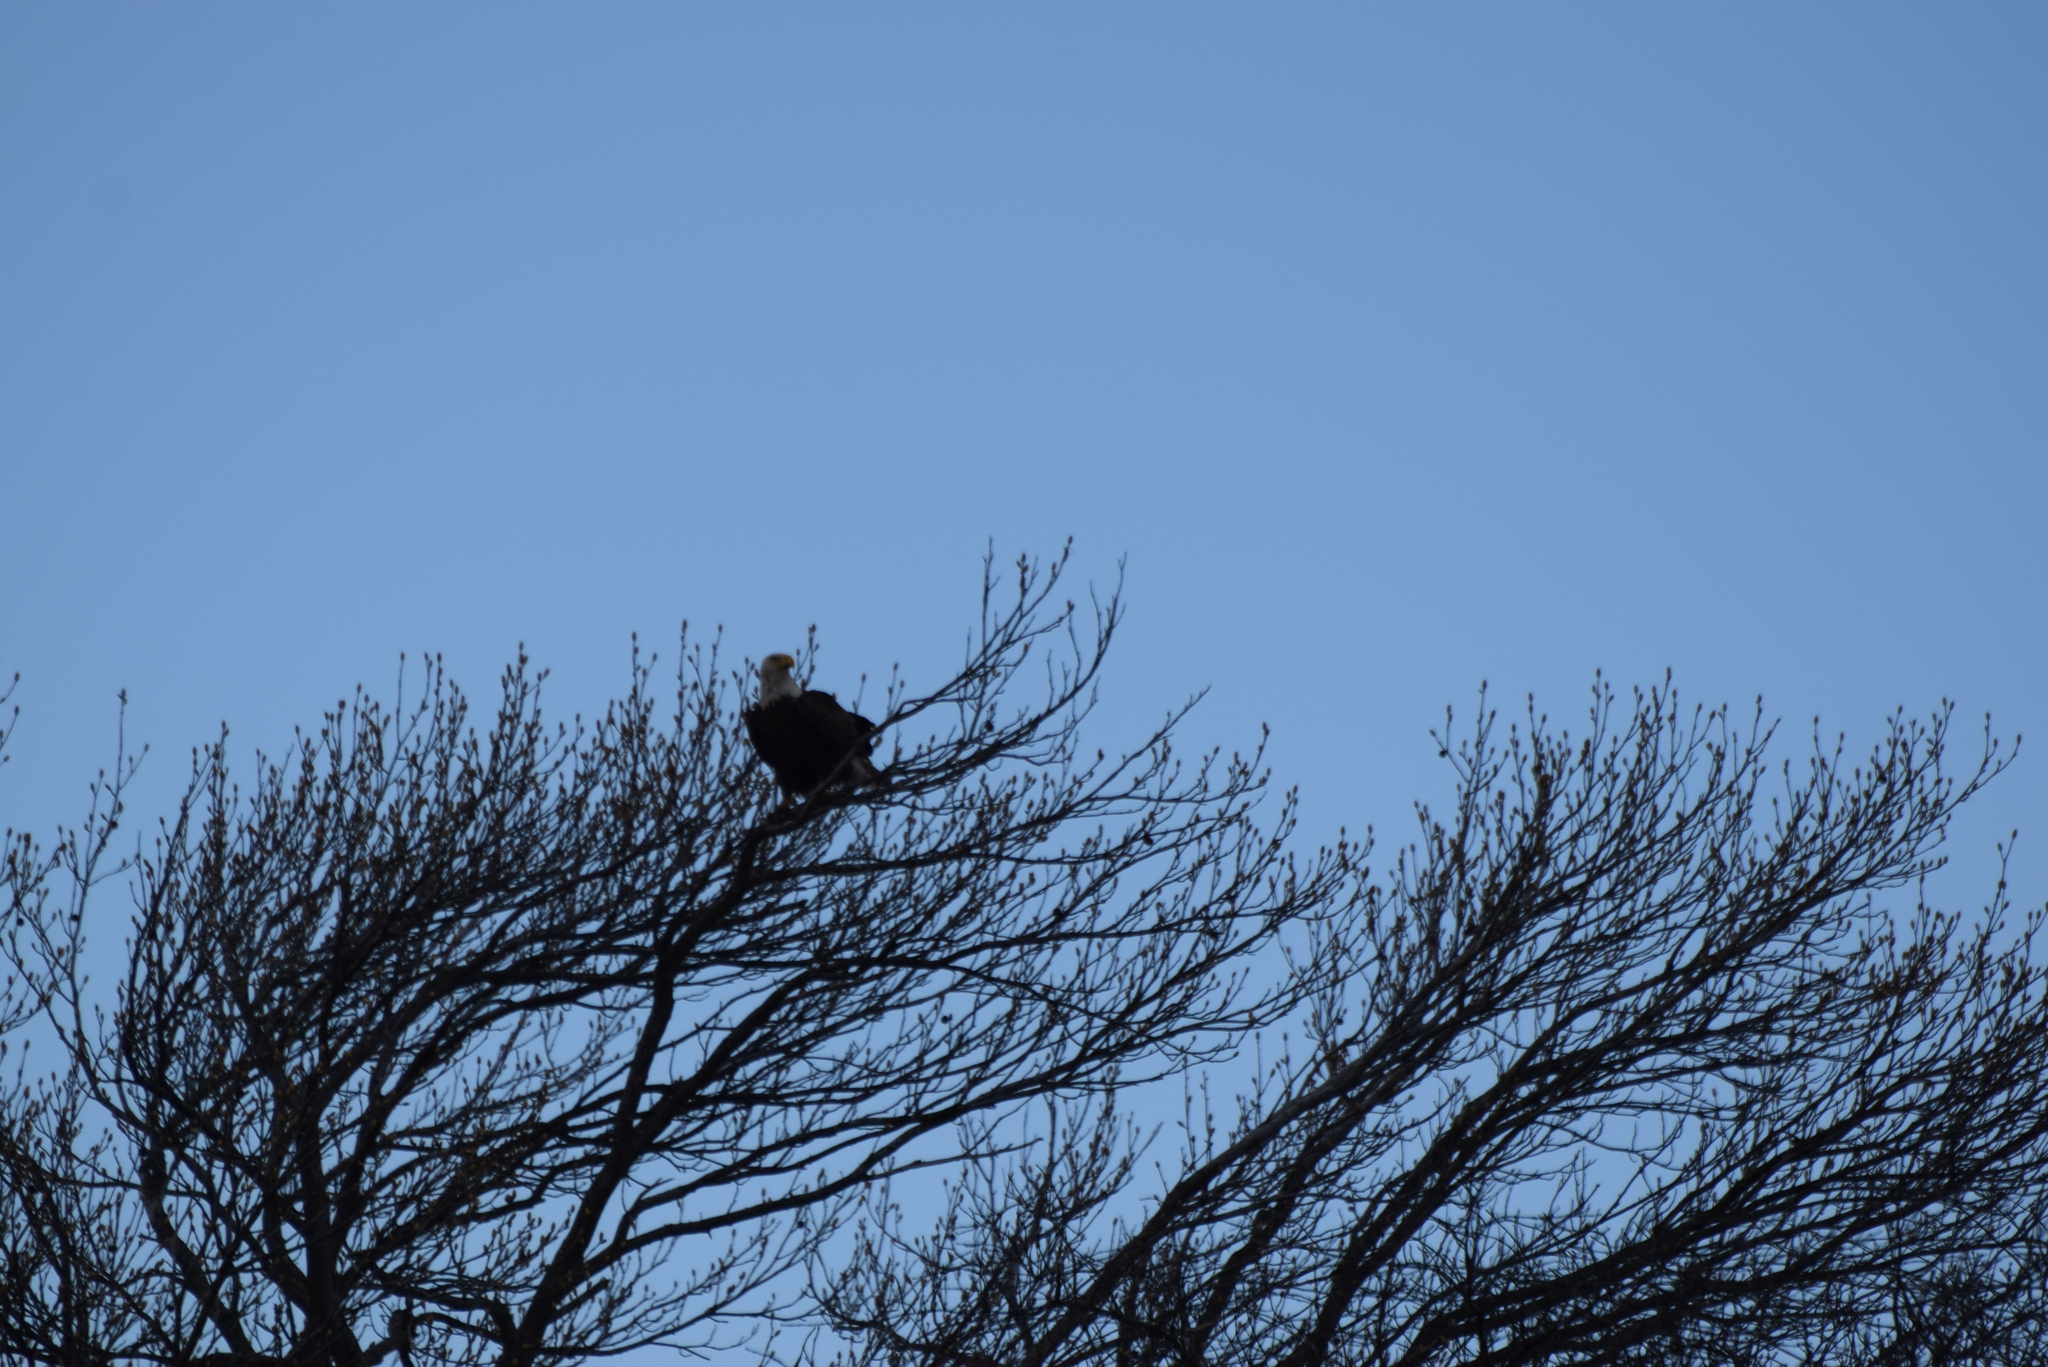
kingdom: Animalia
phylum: Chordata
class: Aves
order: Accipitriformes
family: Accipitridae
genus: Haliaeetus
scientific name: Haliaeetus leucocephalus
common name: Bald eagle
